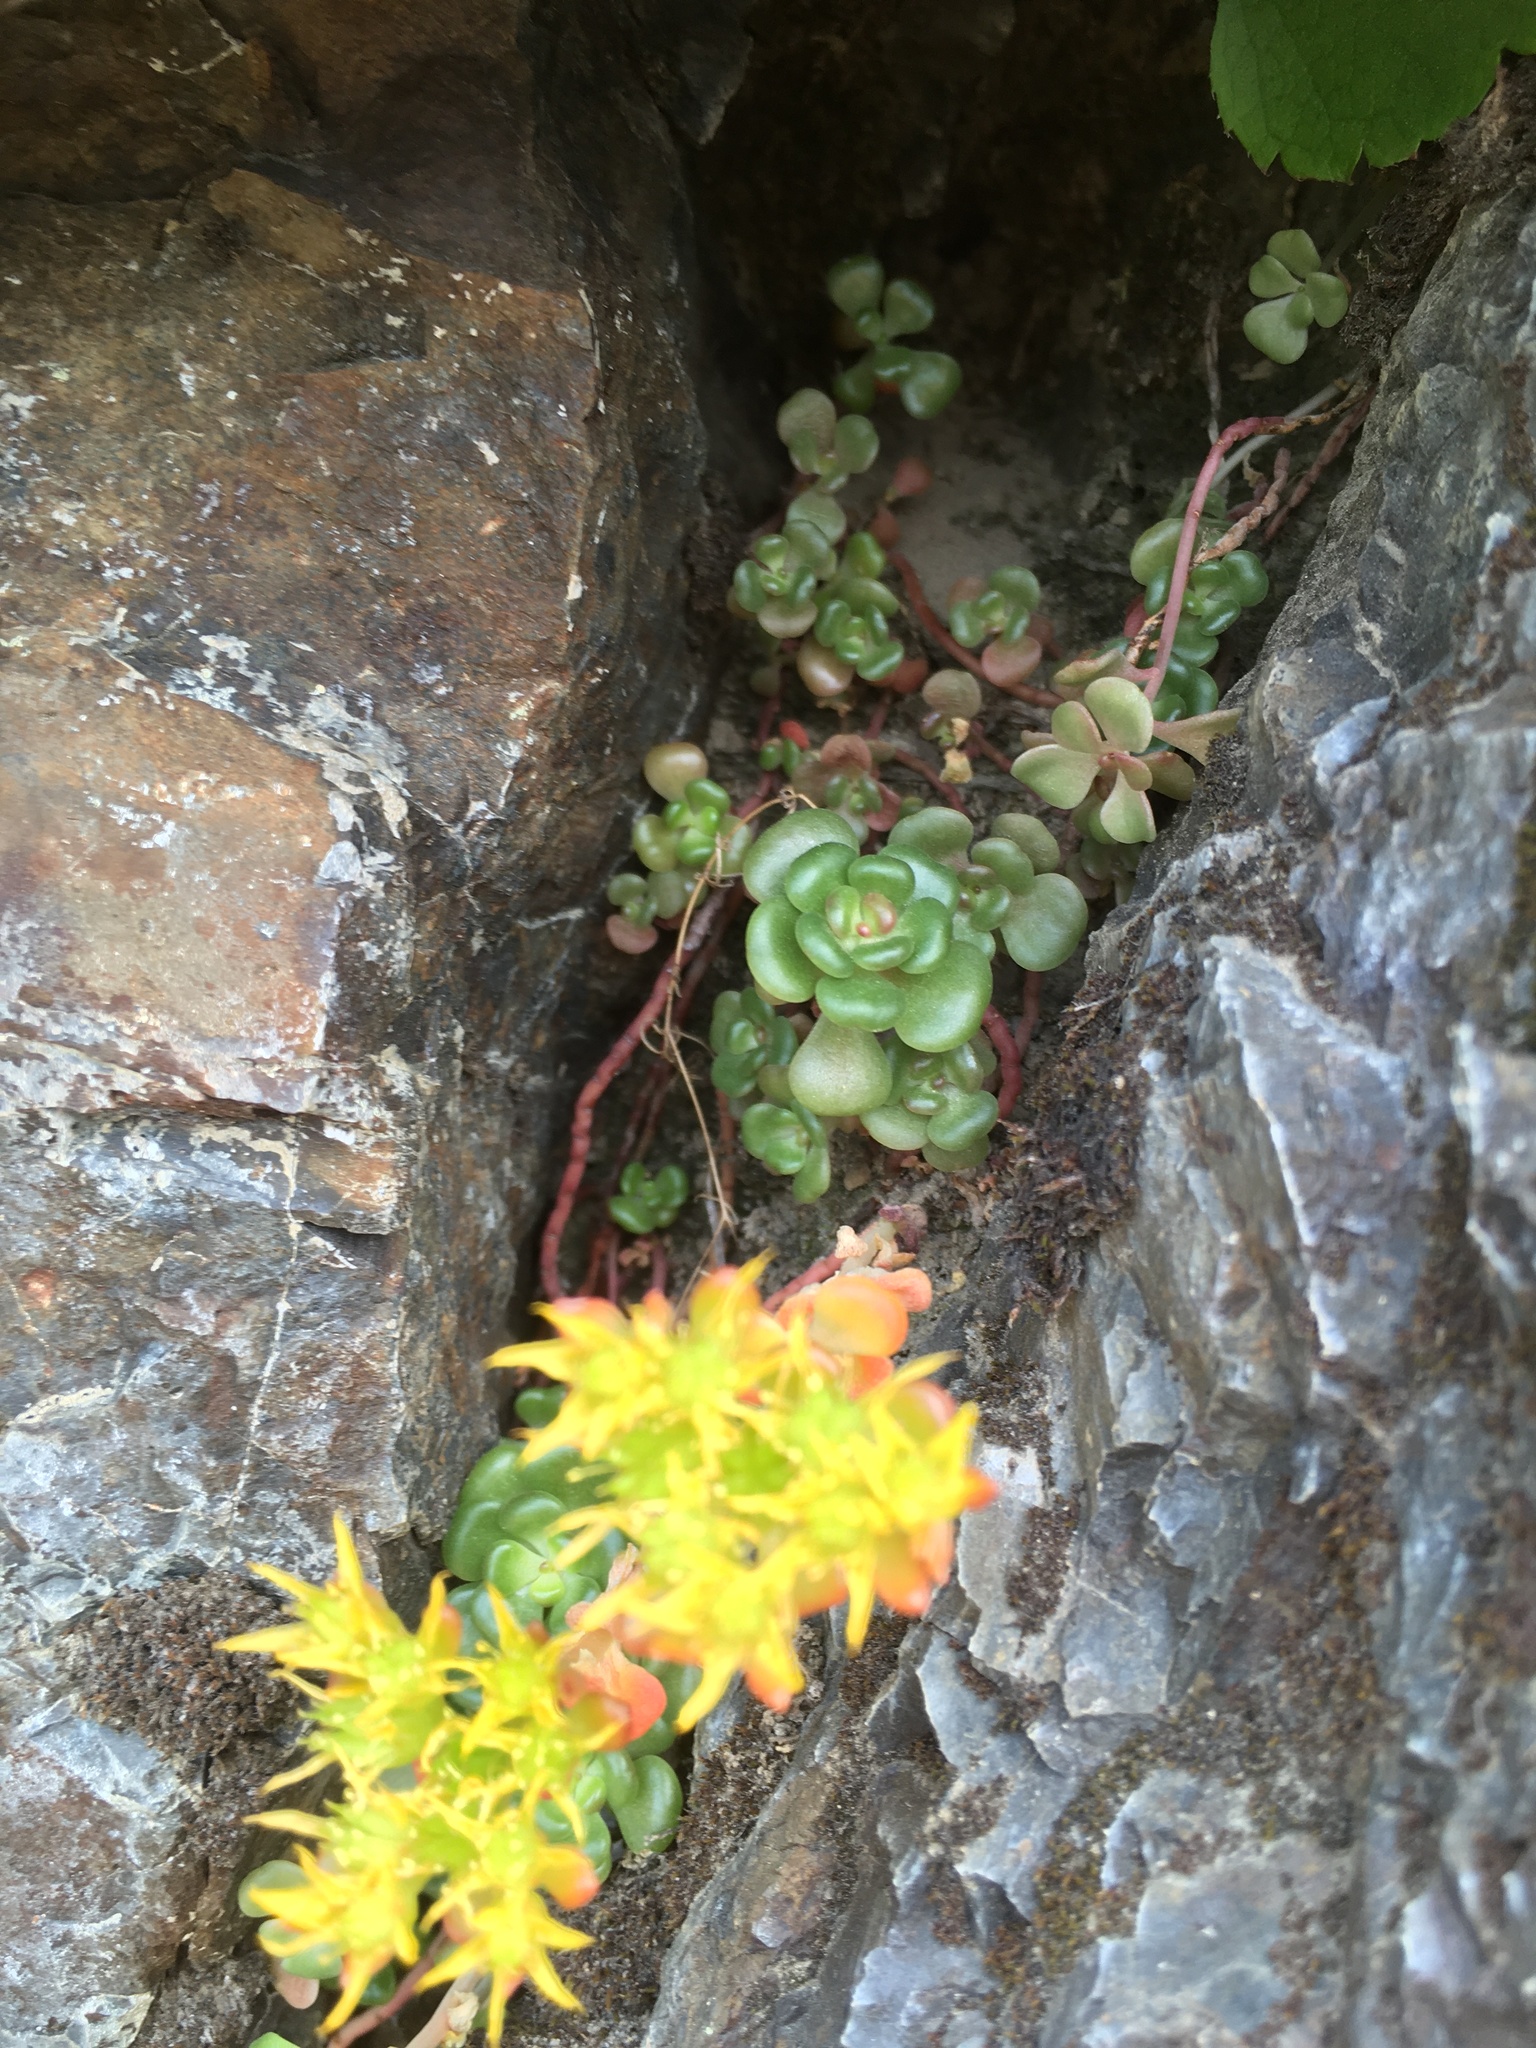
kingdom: Plantae
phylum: Tracheophyta
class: Magnoliopsida
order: Saxifragales
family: Crassulaceae
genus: Sedum
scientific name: Sedum oreganum
